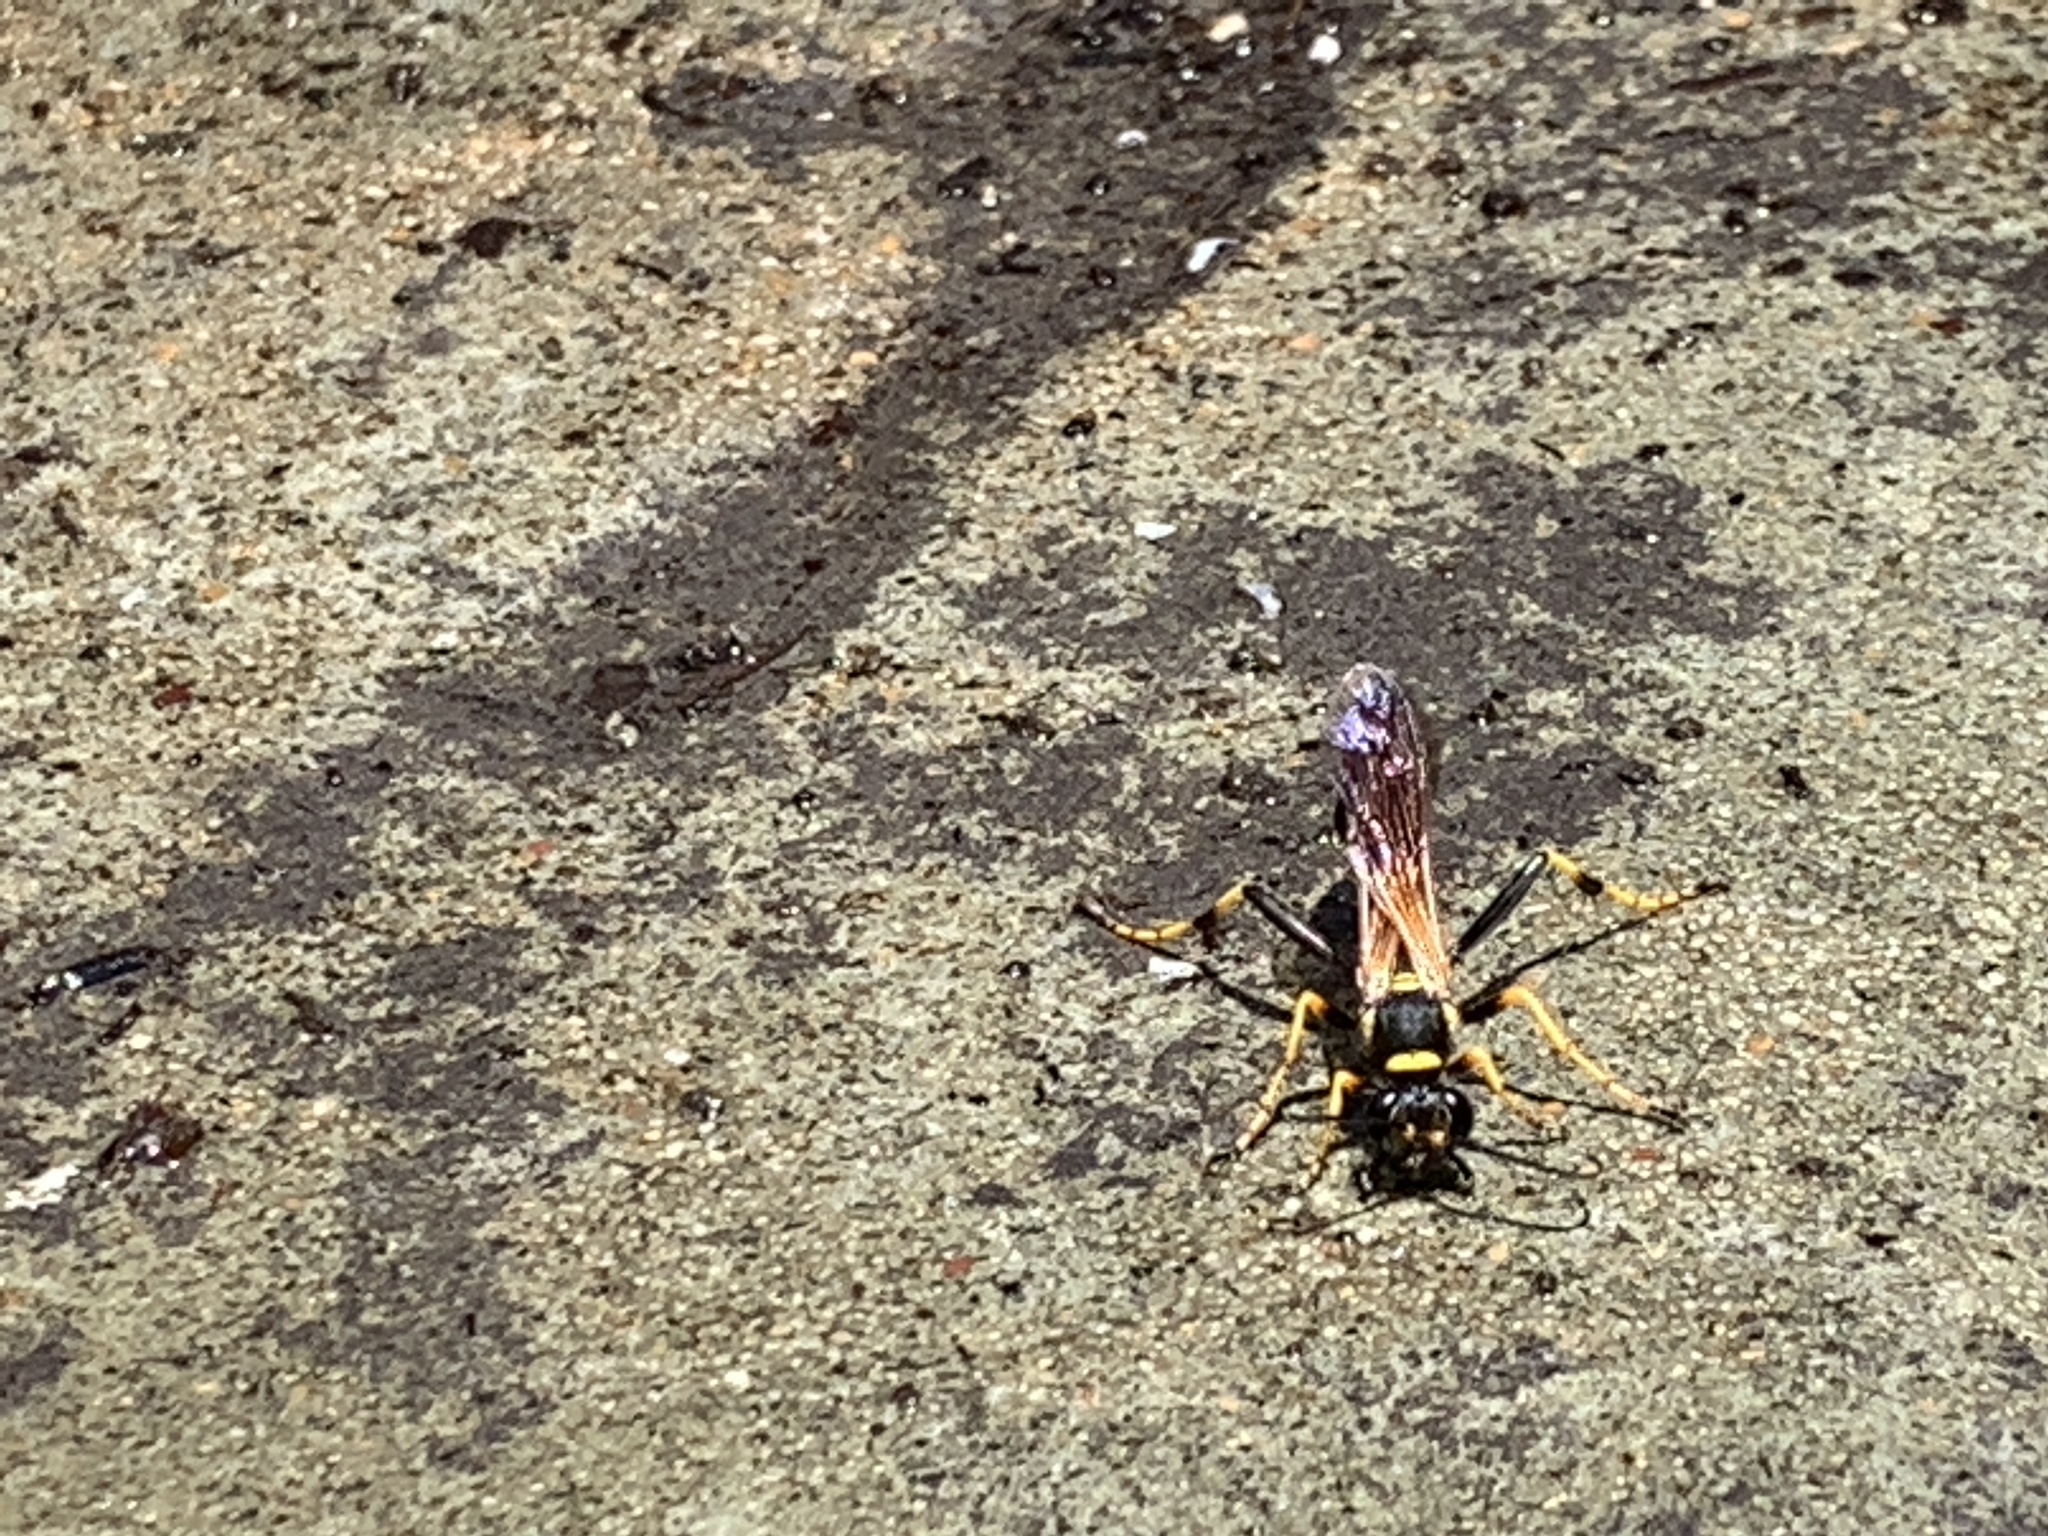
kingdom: Animalia
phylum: Arthropoda
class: Insecta
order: Hymenoptera
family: Sphecidae
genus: Sceliphron
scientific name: Sceliphron caementarium
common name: Mud dauber
